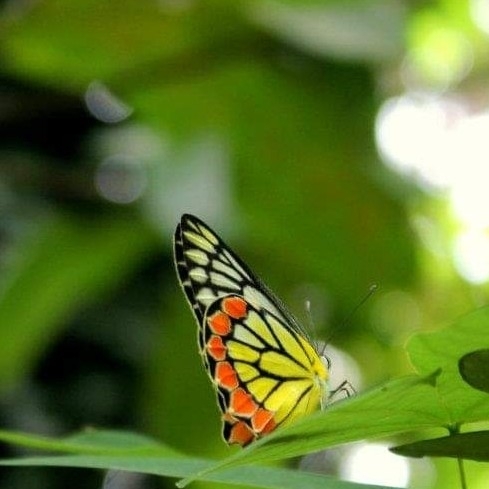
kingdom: Animalia
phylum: Arthropoda
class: Insecta
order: Lepidoptera
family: Pieridae
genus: Delias
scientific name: Delias eucharis
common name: Common jezebel
